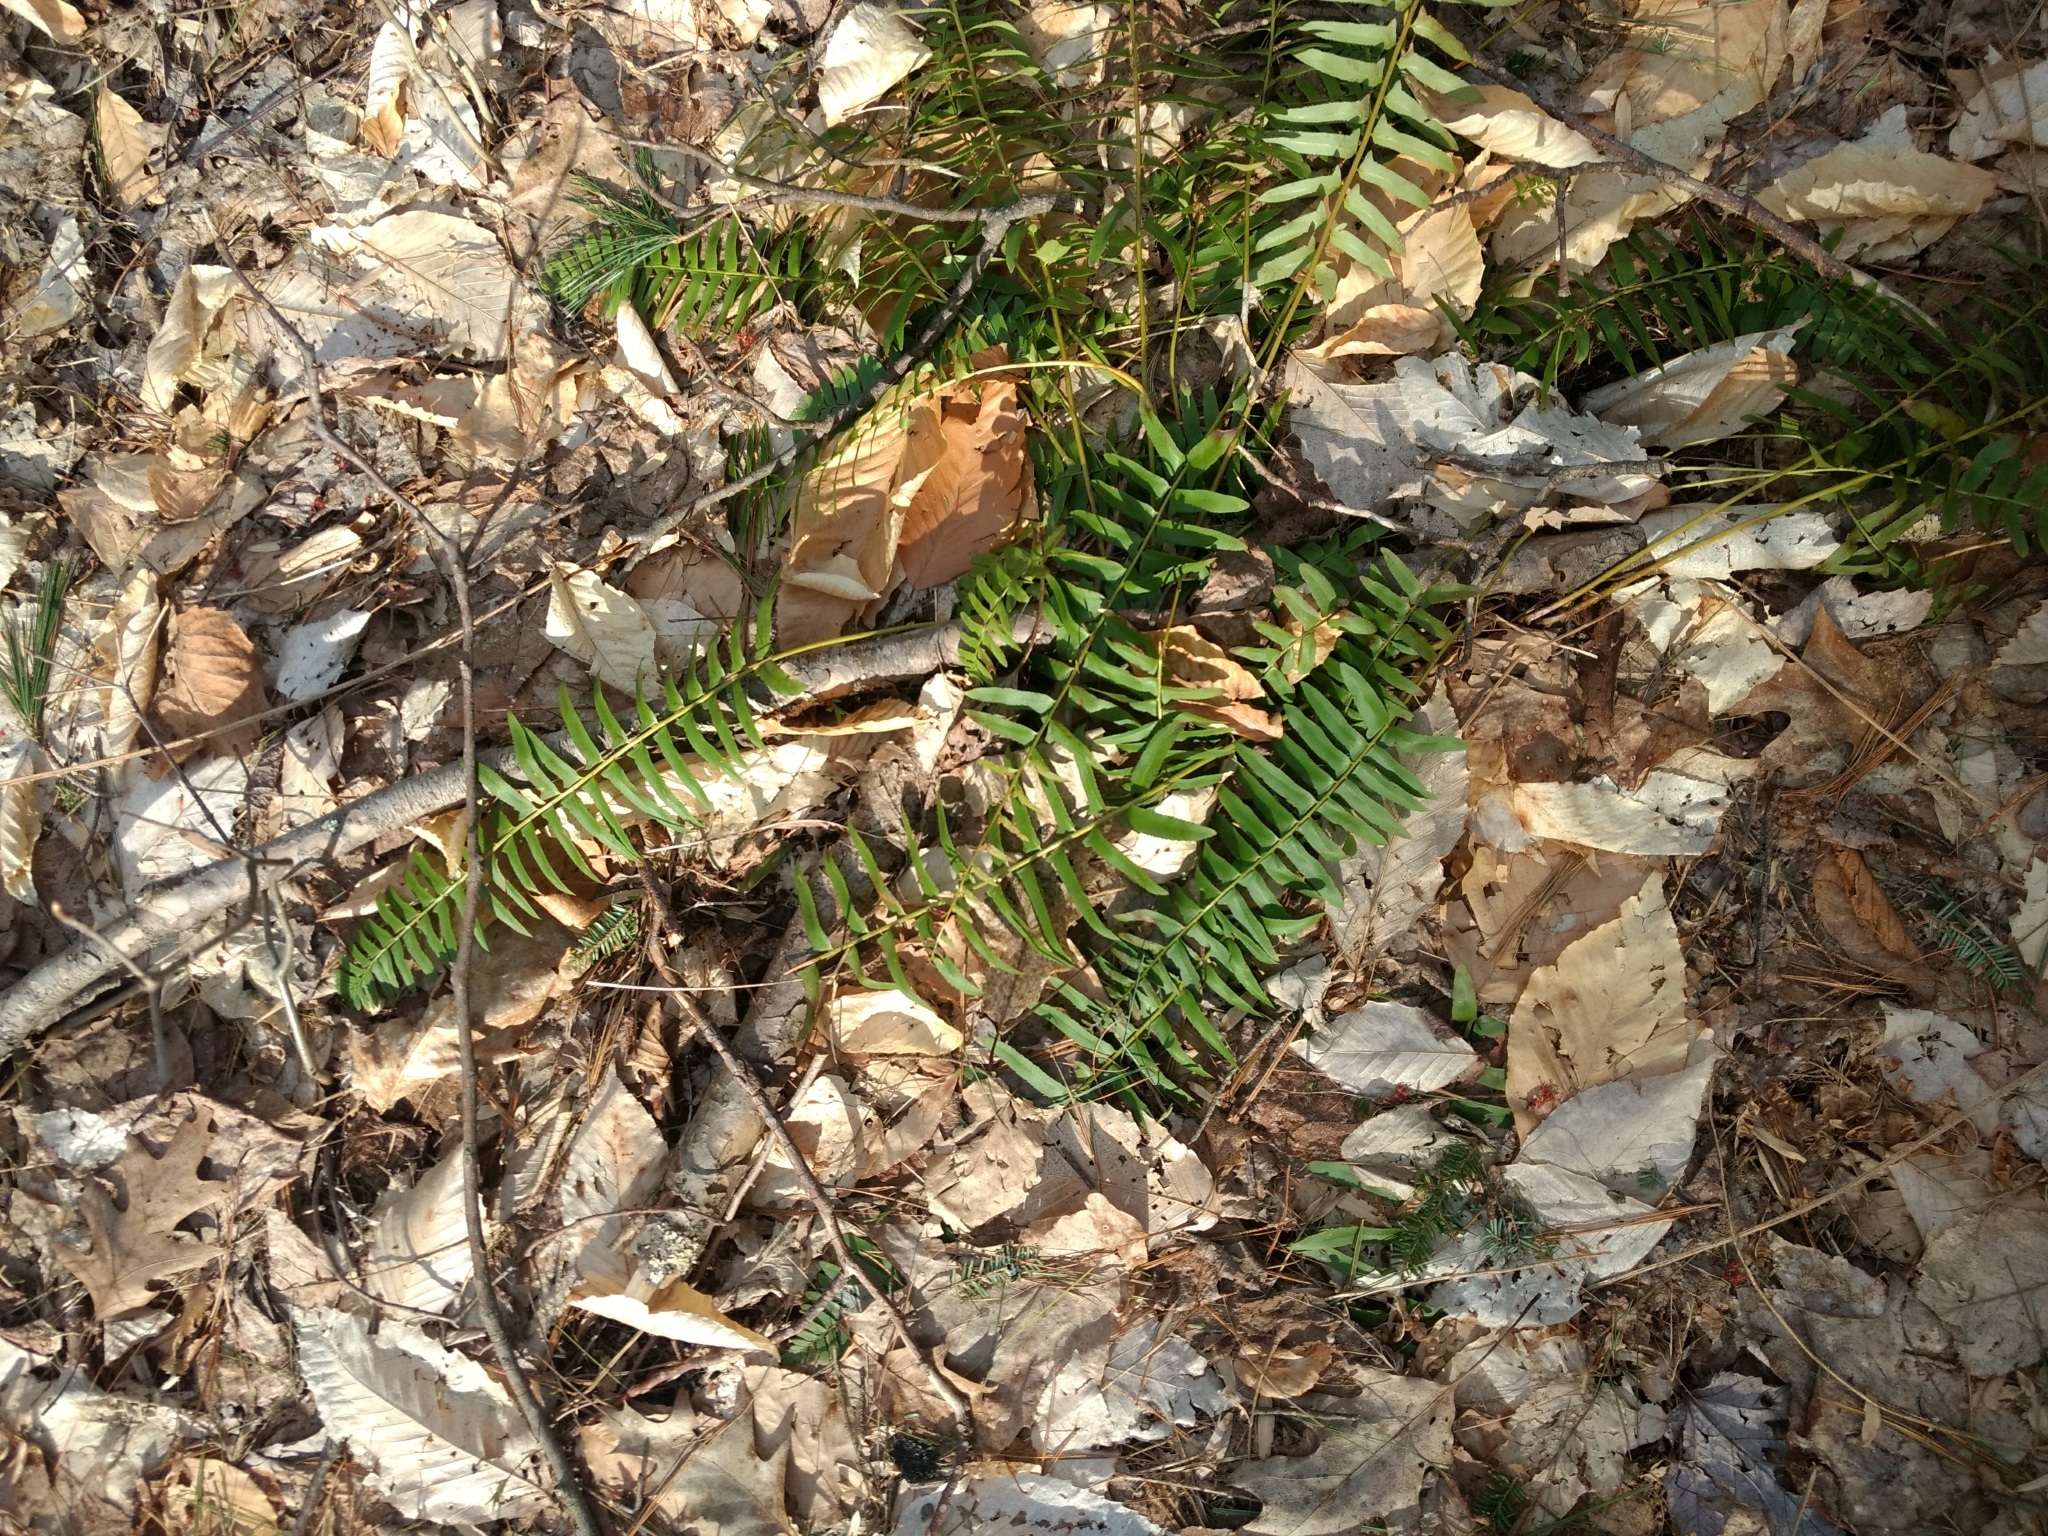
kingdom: Plantae
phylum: Tracheophyta
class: Polypodiopsida
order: Polypodiales
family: Dryopteridaceae
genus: Polystichum
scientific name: Polystichum acrostichoides
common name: Christmas fern
